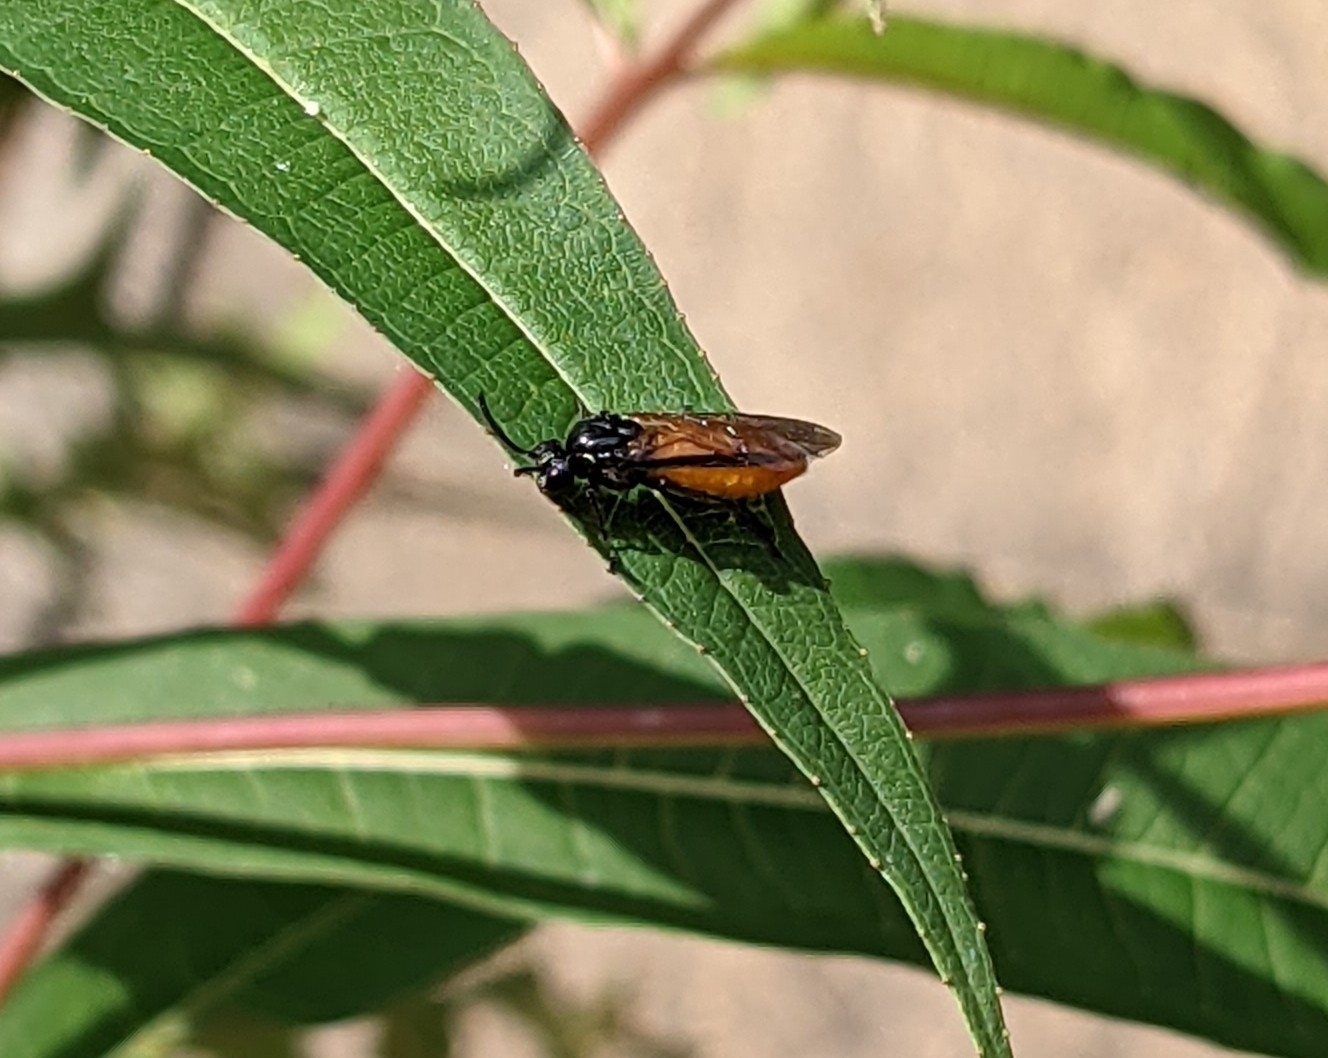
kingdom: Animalia
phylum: Arthropoda
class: Insecta
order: Hymenoptera
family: Argidae
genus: Arge
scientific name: Arge pagana
